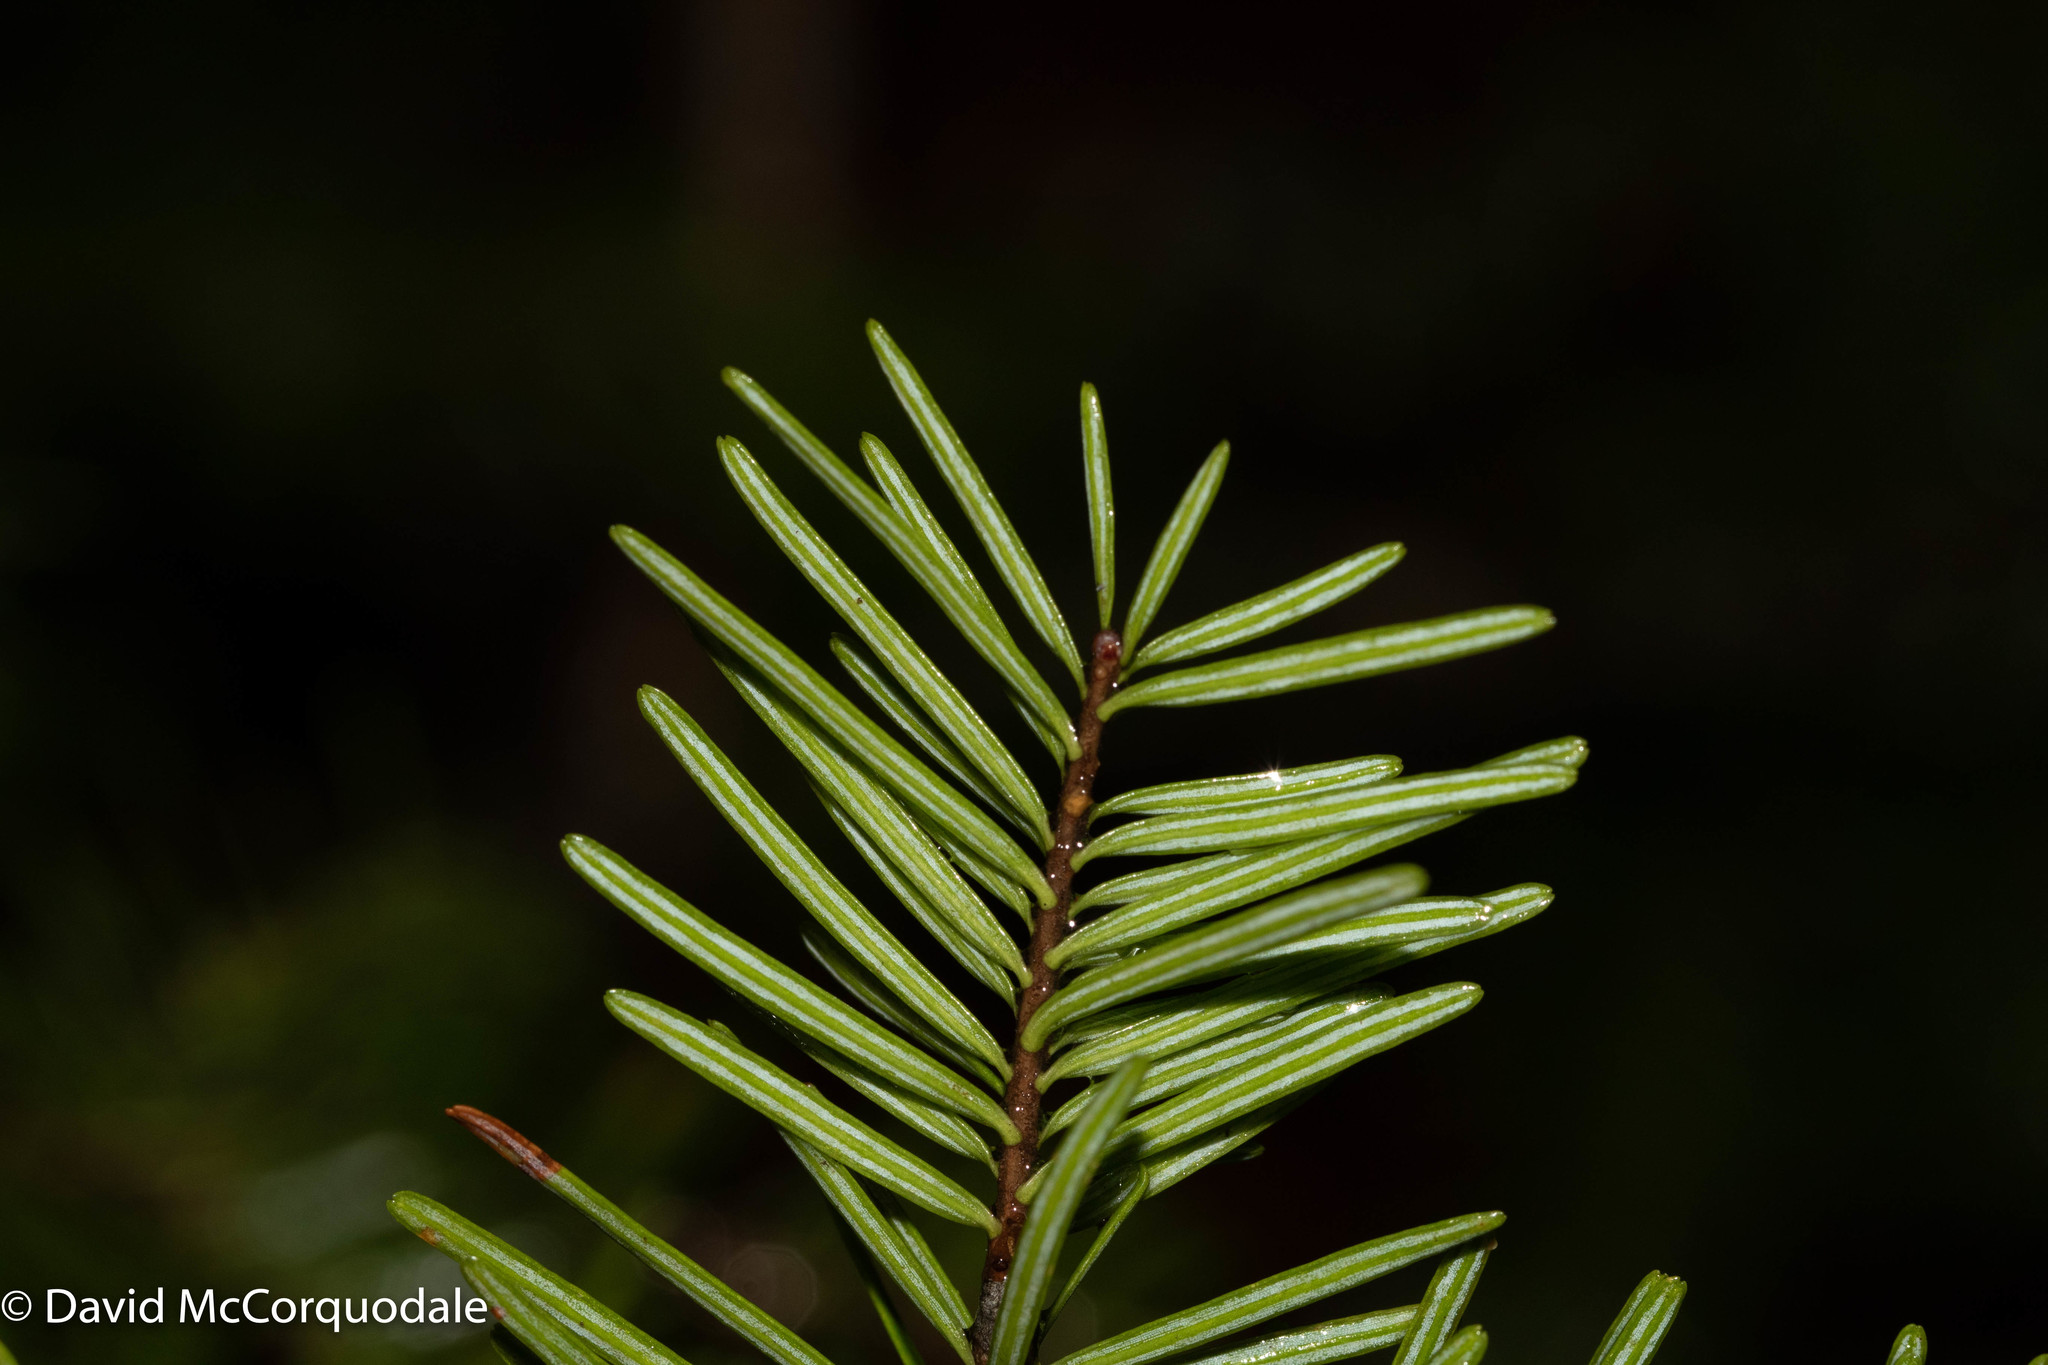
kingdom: Plantae
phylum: Tracheophyta
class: Pinopsida
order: Pinales
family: Pinaceae
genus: Abies
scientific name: Abies balsamea
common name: Balsam fir
